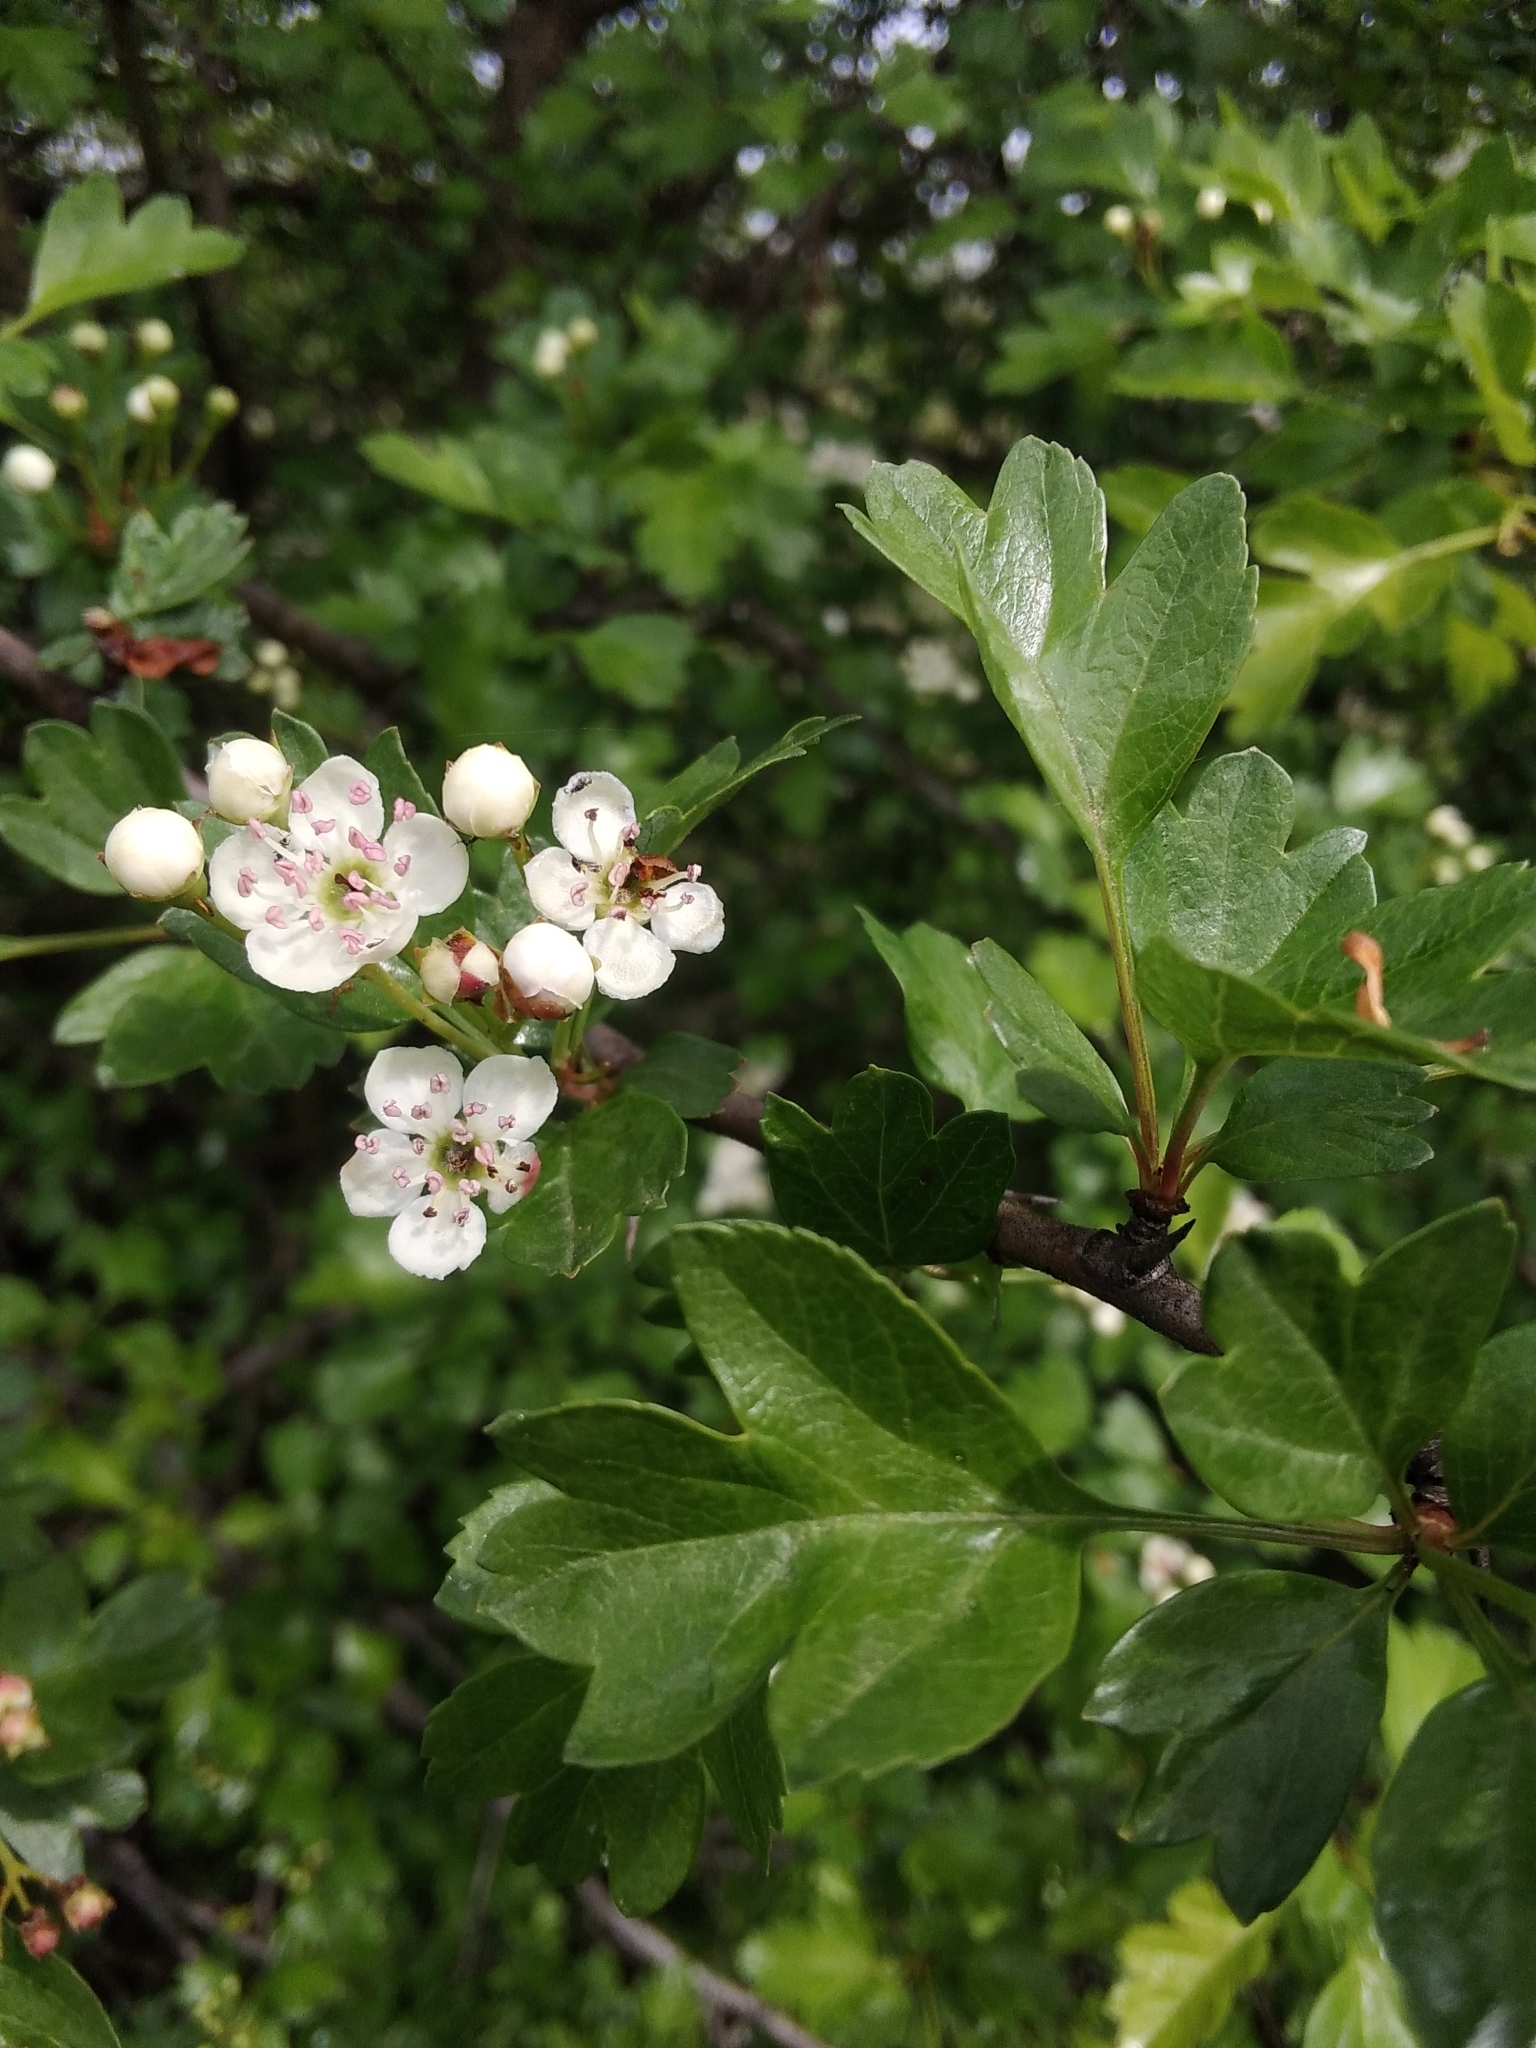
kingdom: Plantae
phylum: Tracheophyta
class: Magnoliopsida
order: Rosales
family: Rosaceae
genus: Crataegus
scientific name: Crataegus monogyna
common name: Hawthorn
